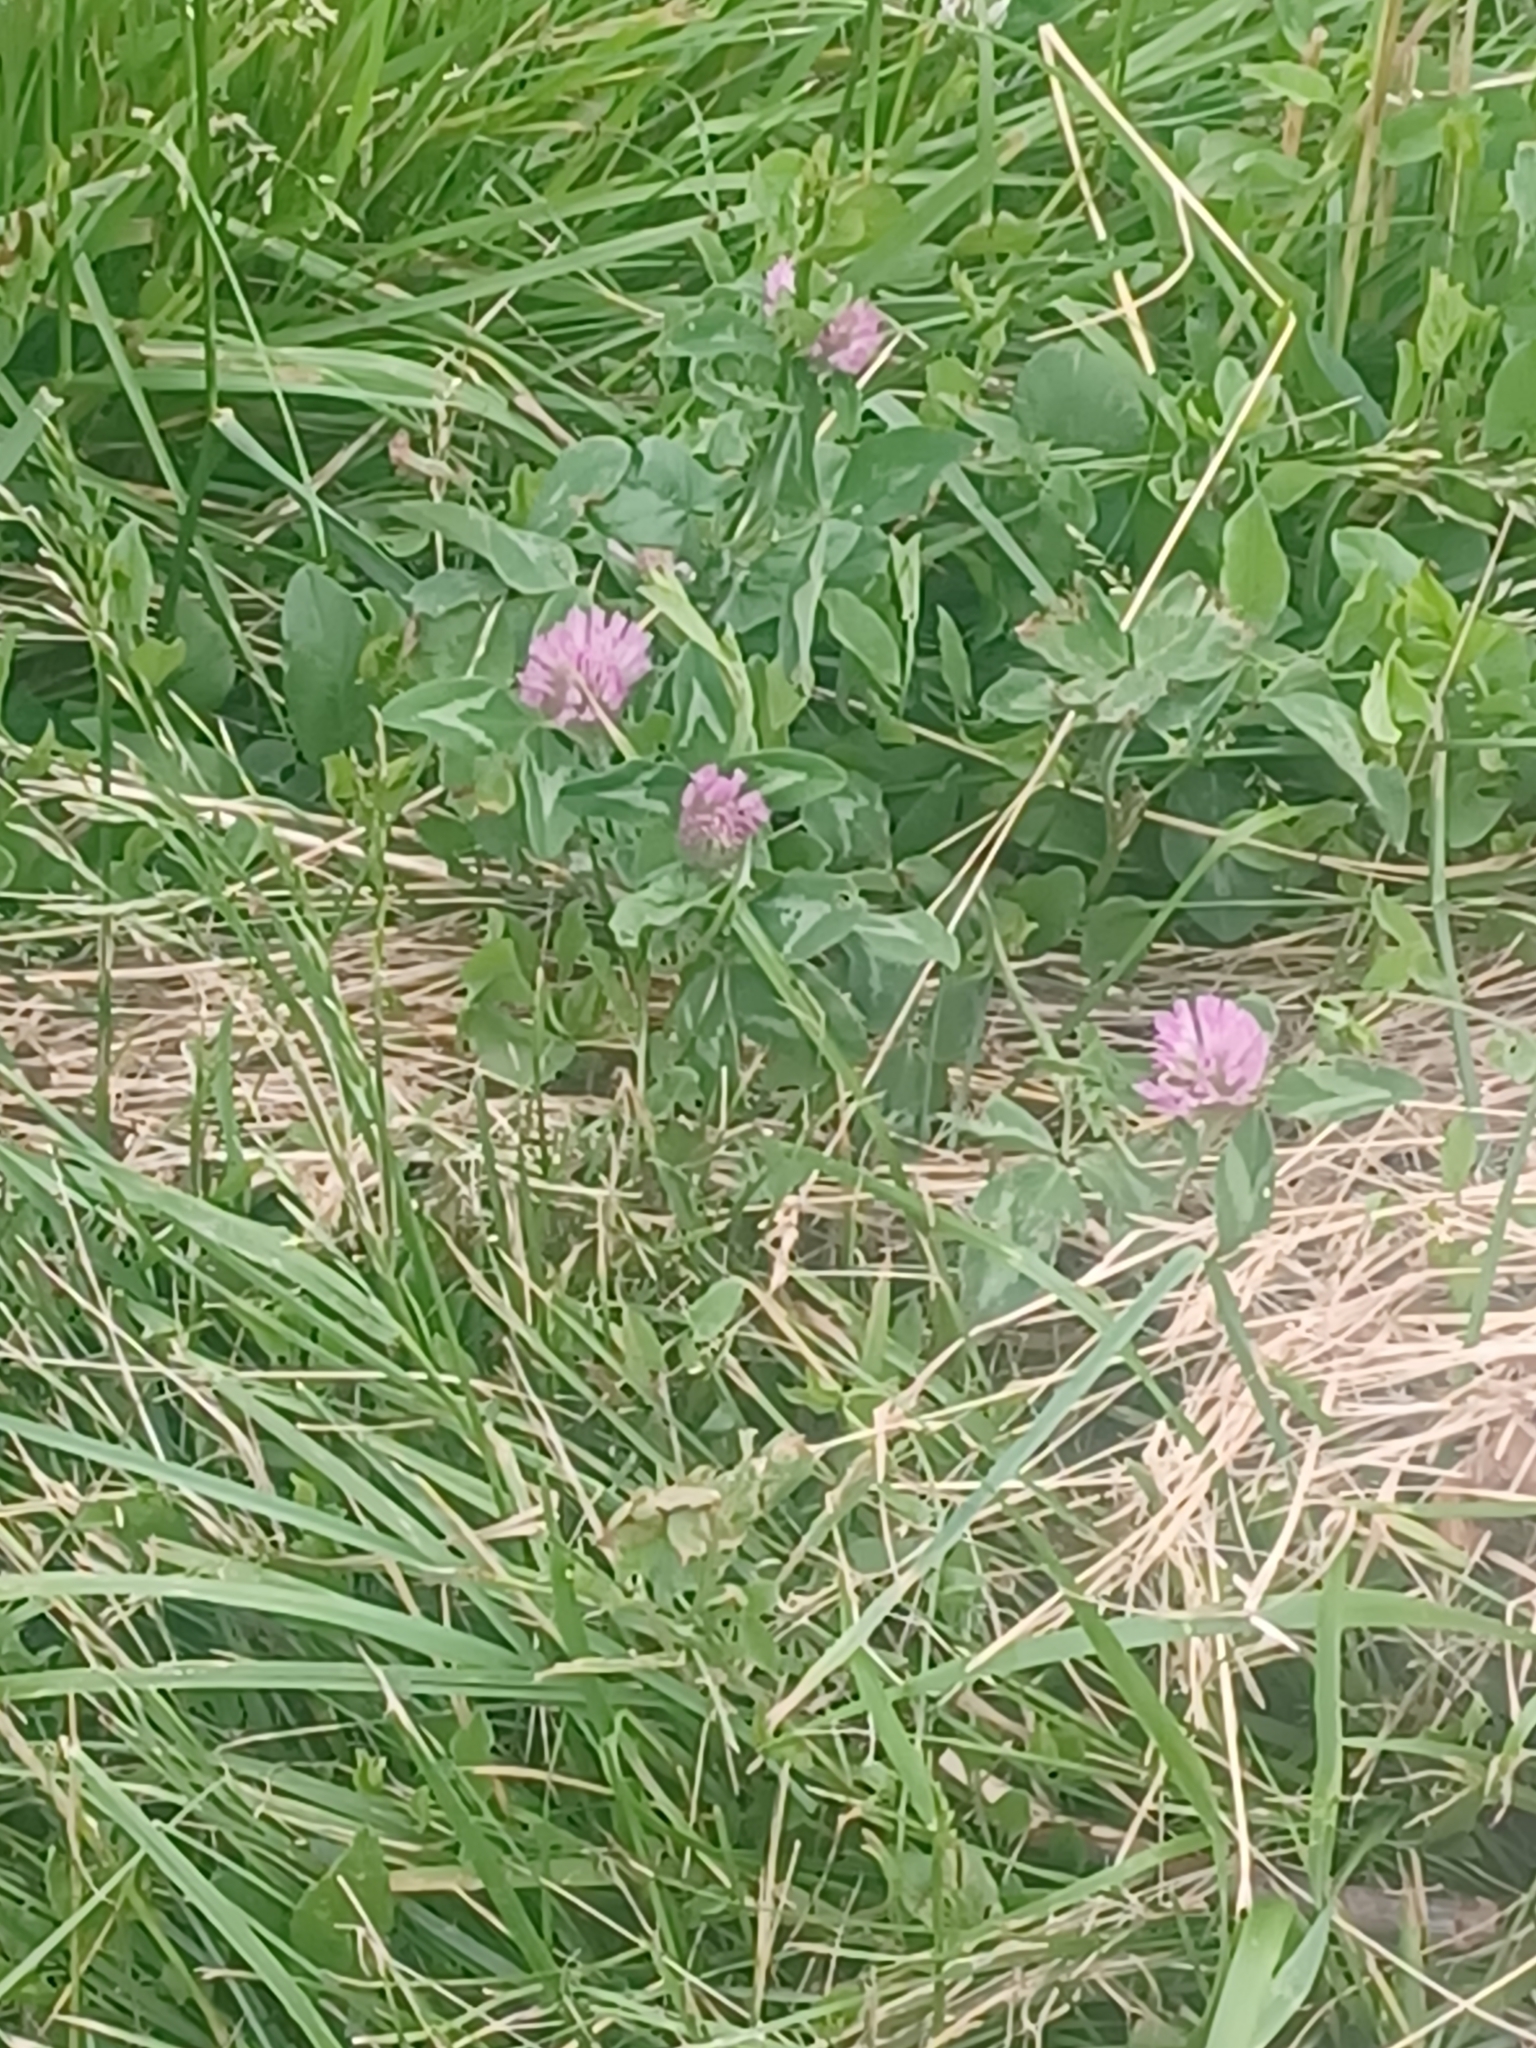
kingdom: Plantae
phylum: Tracheophyta
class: Magnoliopsida
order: Fabales
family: Fabaceae
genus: Trifolium
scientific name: Trifolium pratense
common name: Red clover
